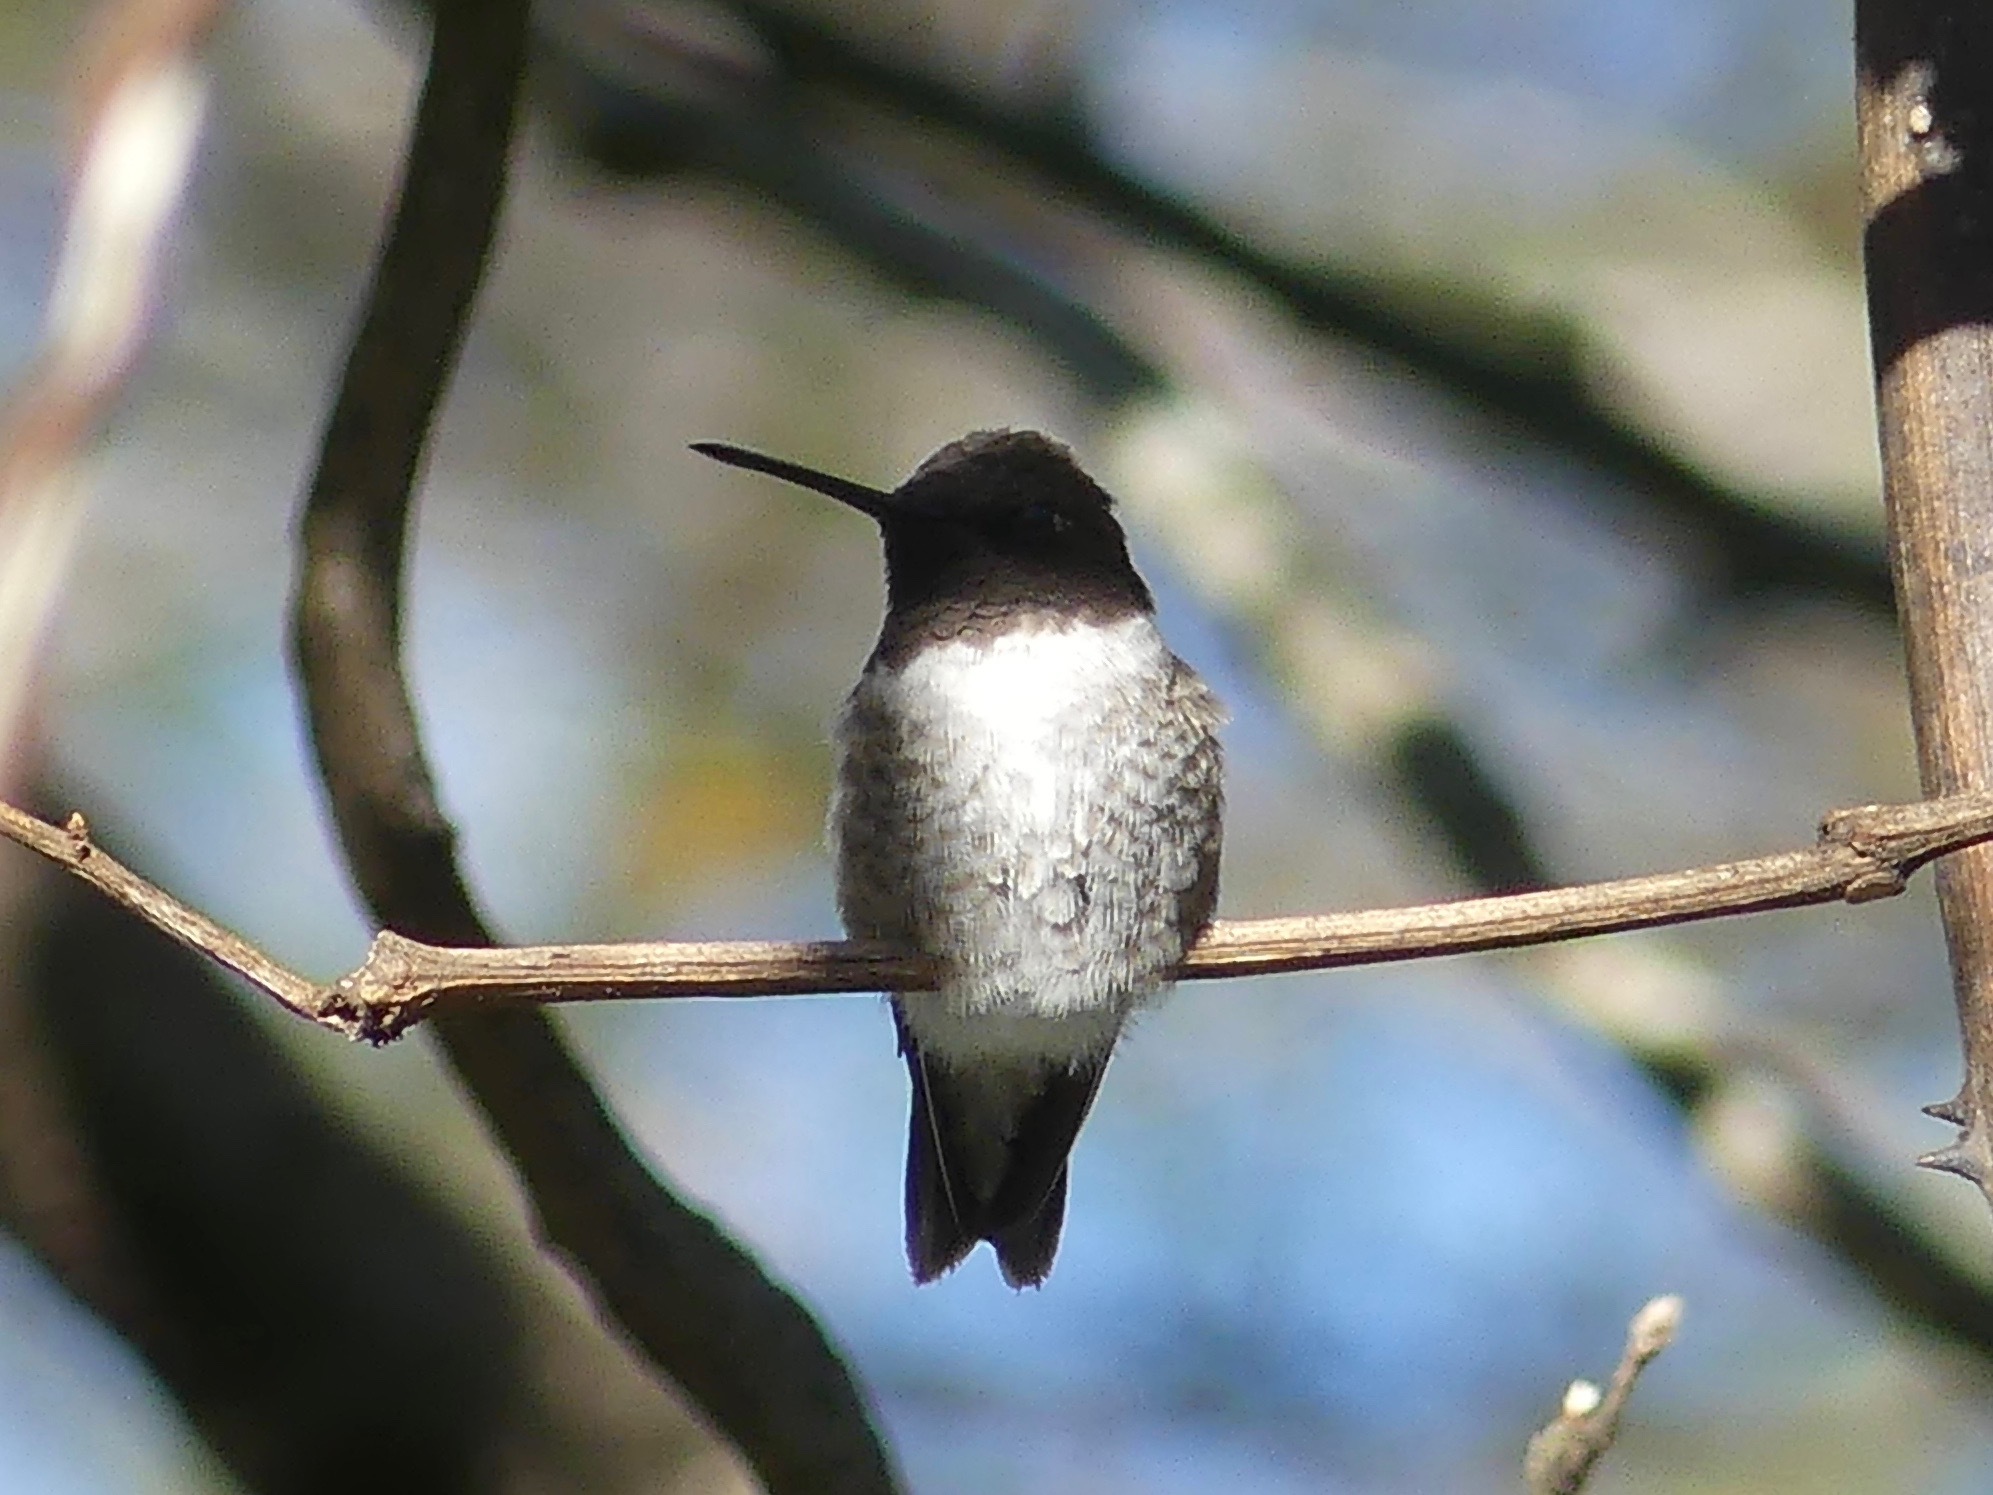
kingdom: Animalia
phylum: Chordata
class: Aves
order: Apodiformes
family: Trochilidae
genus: Archilochus
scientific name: Archilochus alexandri
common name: Black-chinned hummingbird
